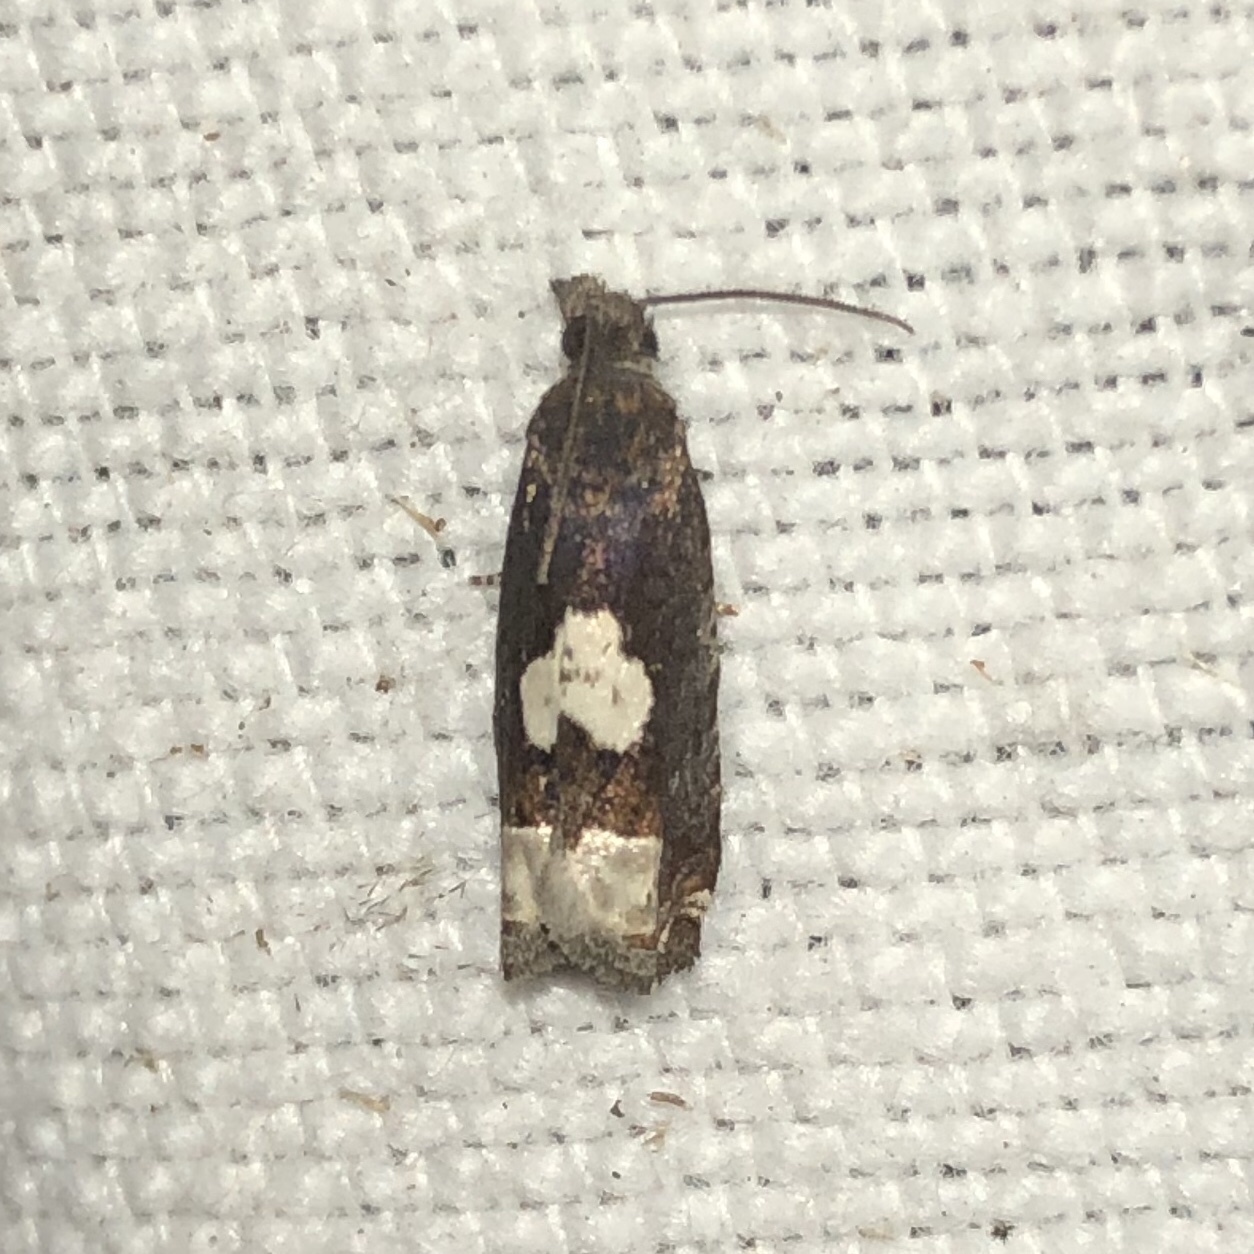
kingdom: Animalia
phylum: Arthropoda
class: Insecta
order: Lepidoptera
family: Tortricidae
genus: Eucosma
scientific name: Eucosma parmatana
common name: Aster eucosma moth
